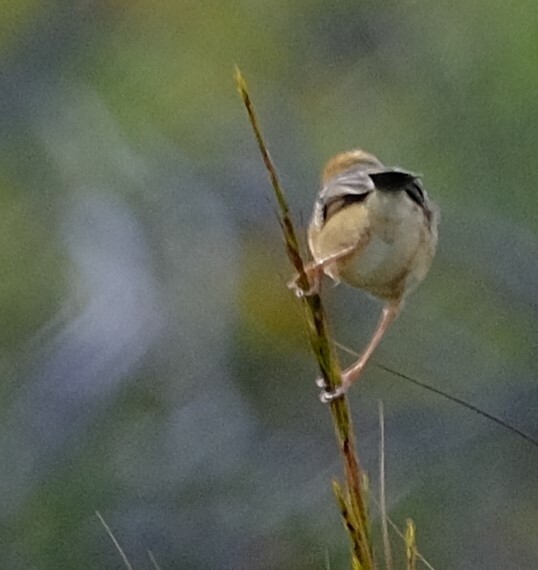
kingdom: Animalia
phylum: Chordata
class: Aves
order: Passeriformes
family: Cisticolidae
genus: Cisticola
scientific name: Cisticola exilis
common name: Golden-headed cisticola
